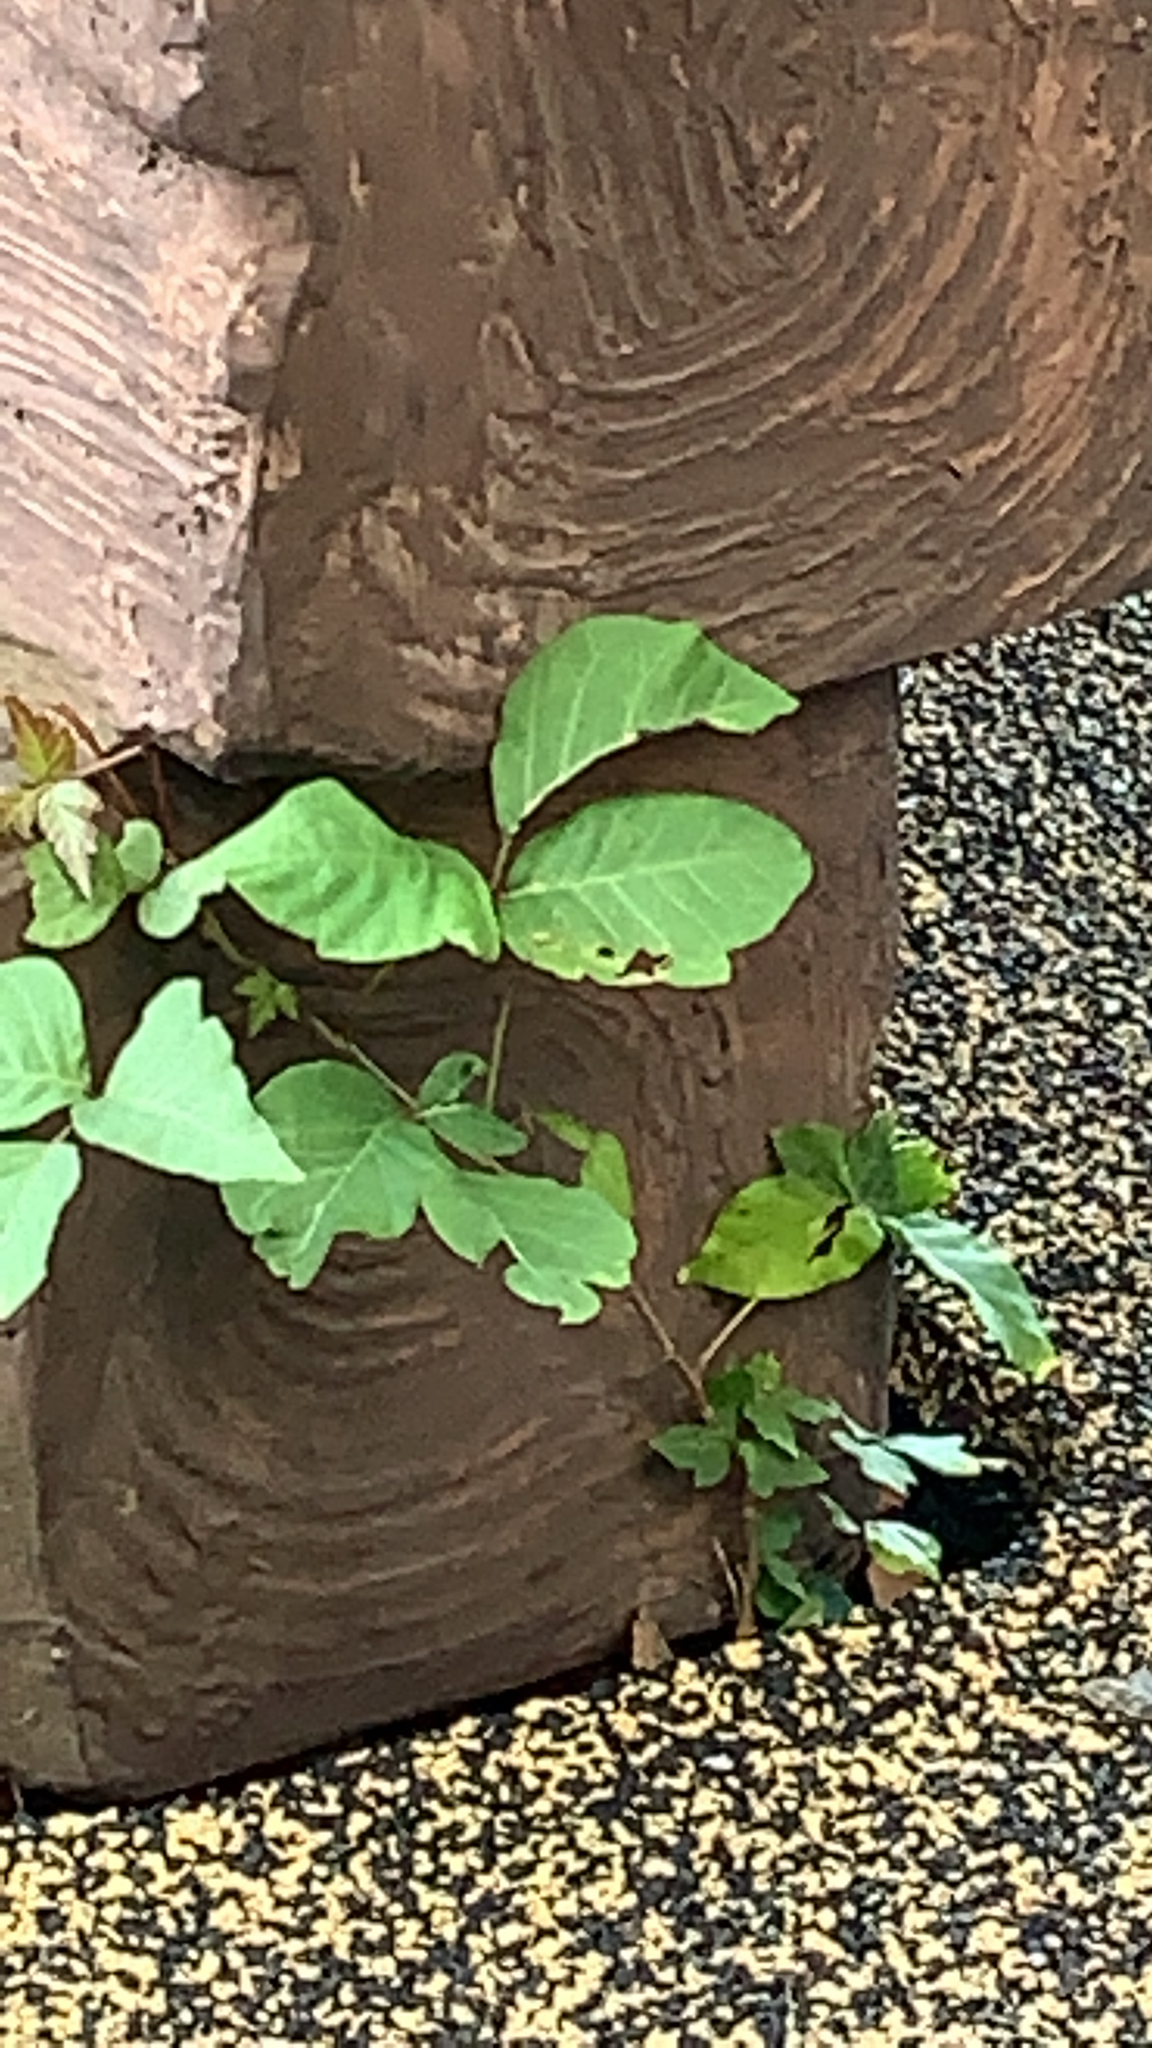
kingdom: Plantae
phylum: Tracheophyta
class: Magnoliopsida
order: Sapindales
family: Anacardiaceae
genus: Toxicodendron
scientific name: Toxicodendron radicans
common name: Poison ivy
